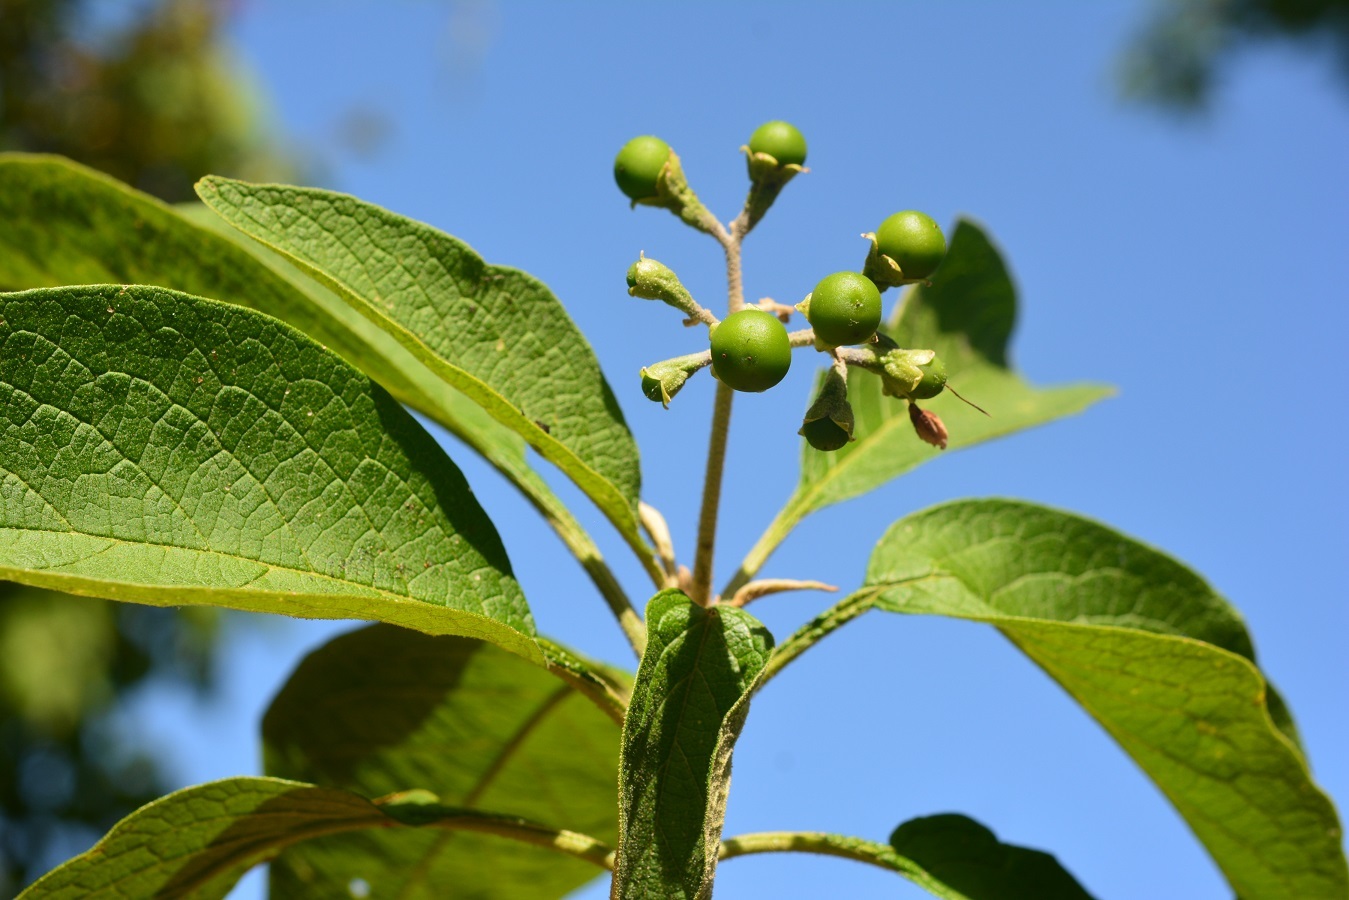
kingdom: Plantae
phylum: Tracheophyta
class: Magnoliopsida
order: Solanales
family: Solanaceae
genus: Solanum
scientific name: Solanum chiapasense
